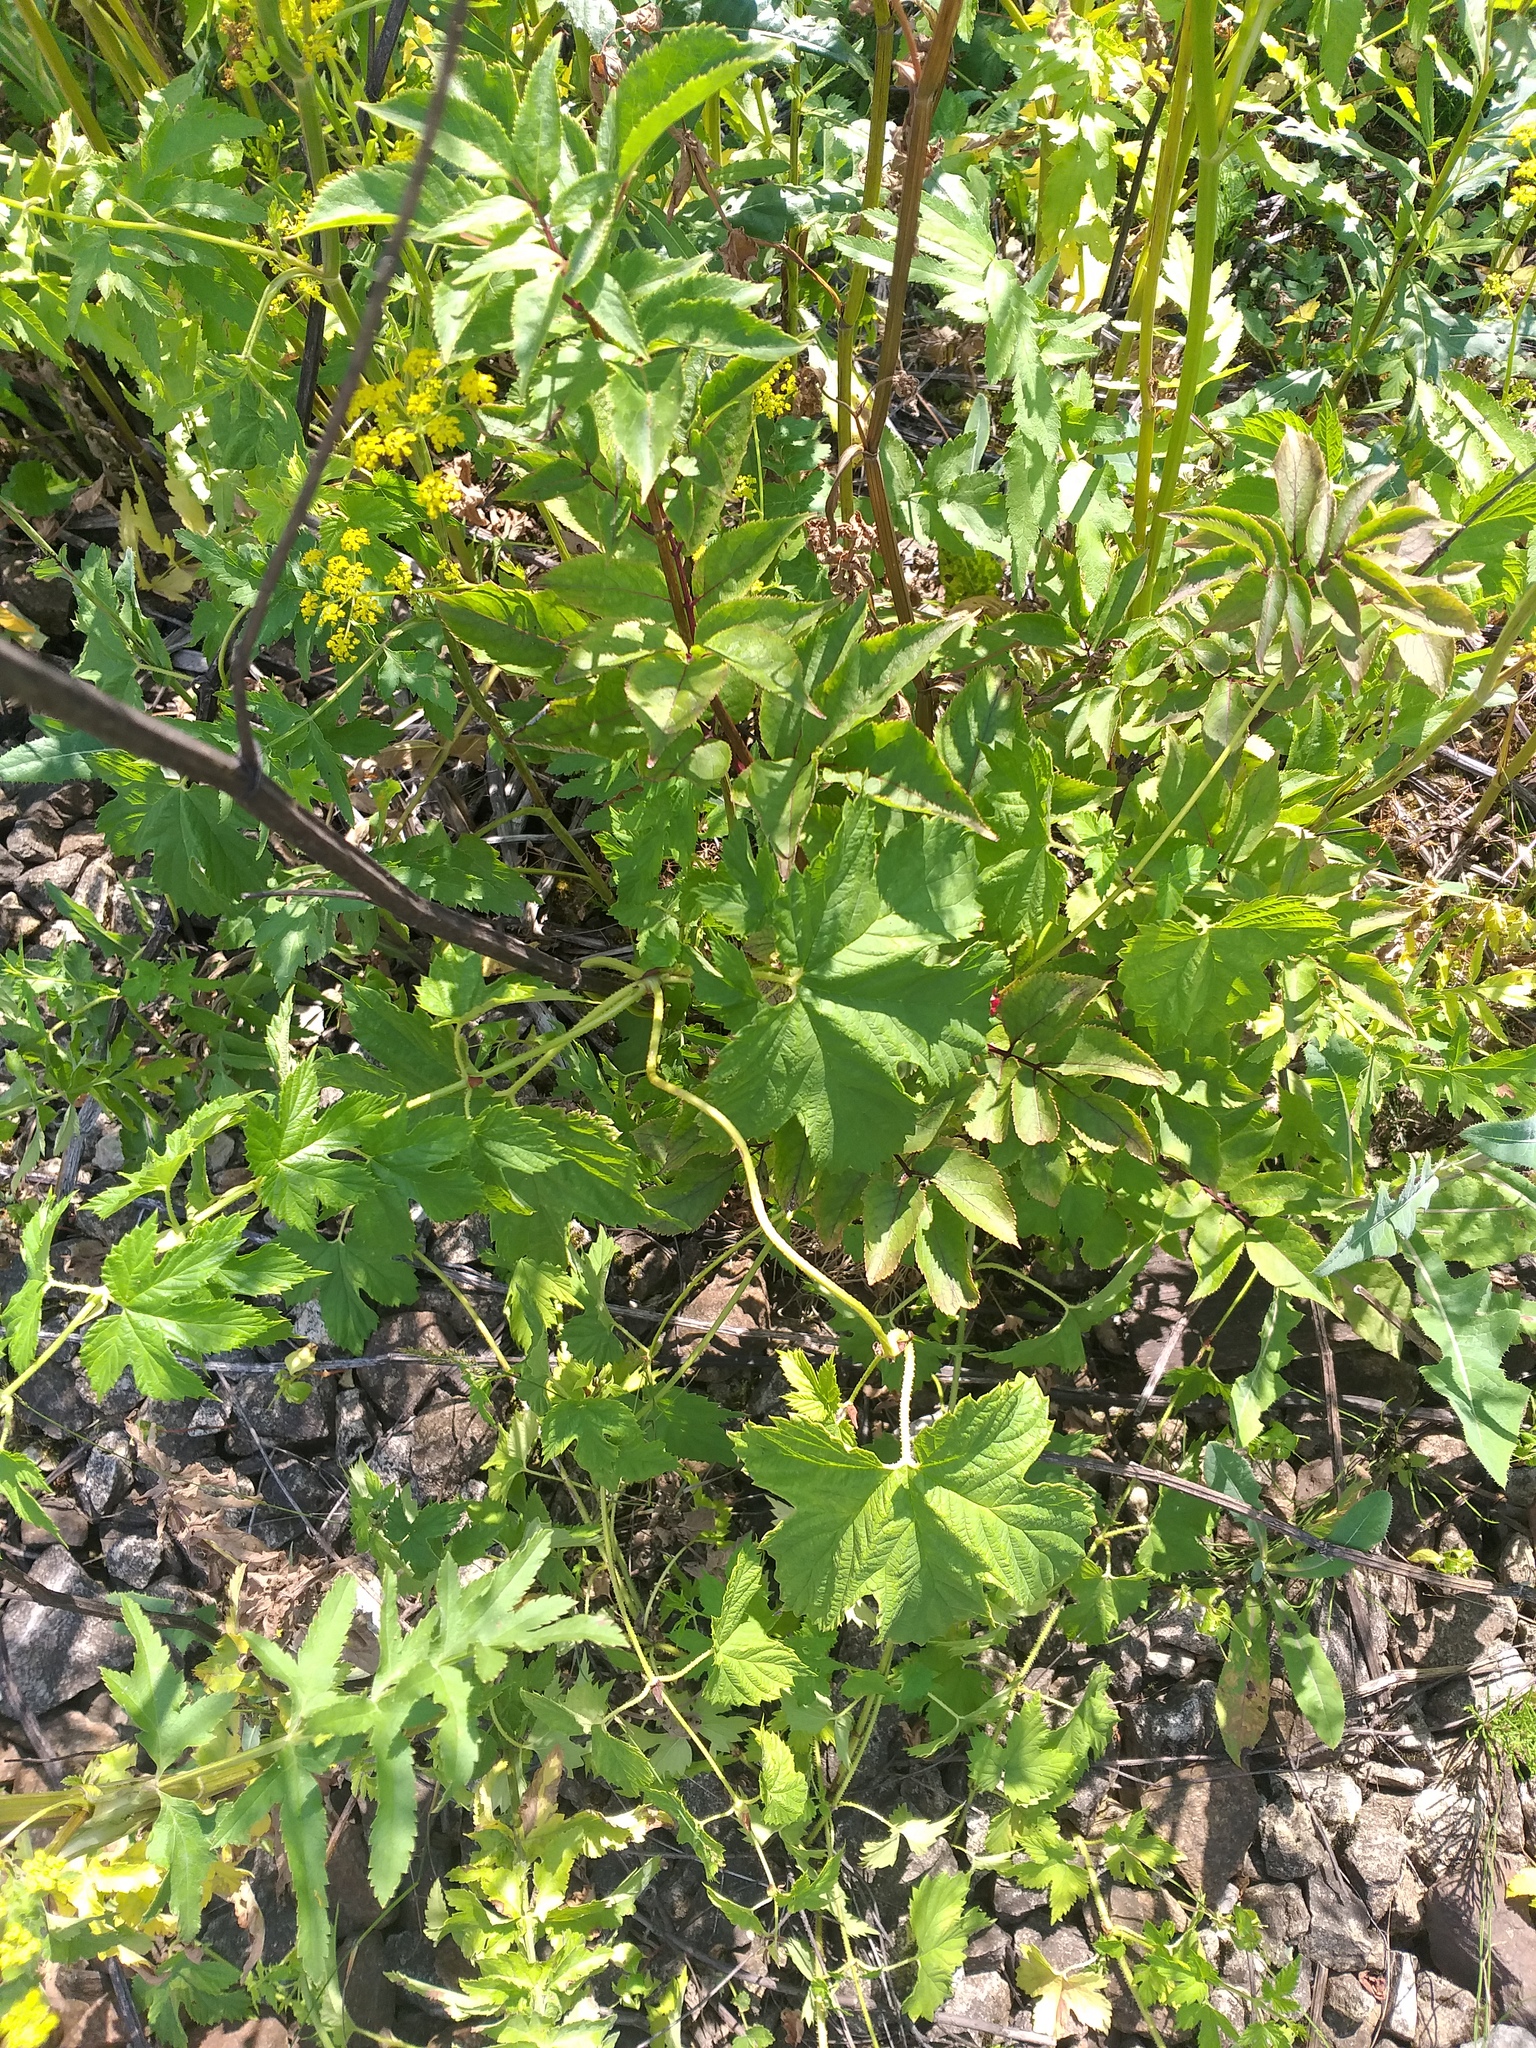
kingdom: Plantae
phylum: Tracheophyta
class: Magnoliopsida
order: Rosales
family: Cannabaceae
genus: Humulus
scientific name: Humulus lupulus
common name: Hop
